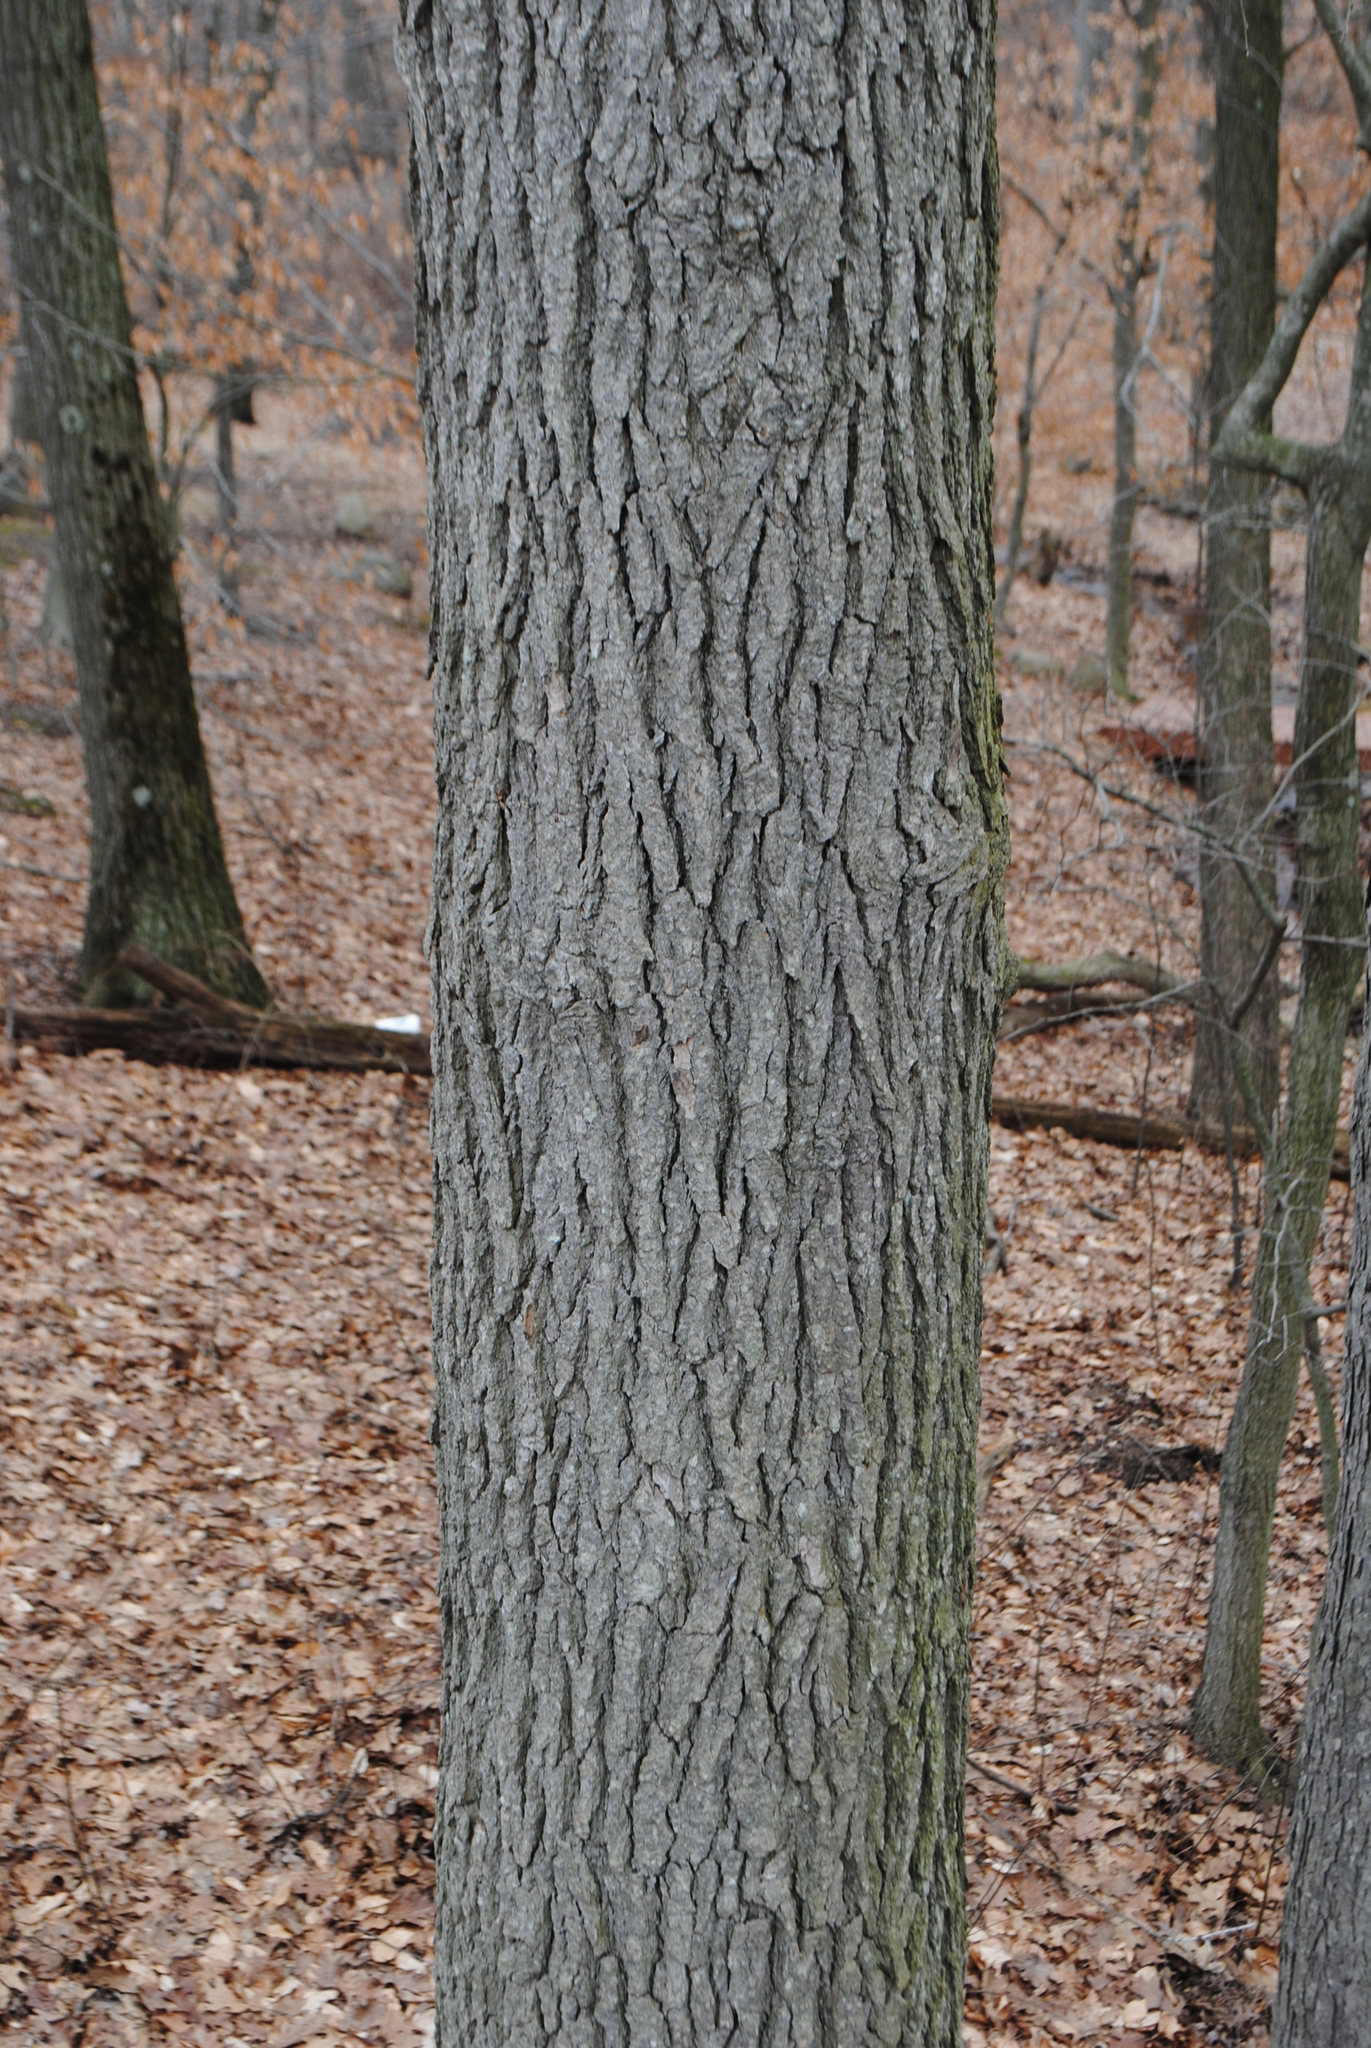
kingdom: Plantae
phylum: Tracheophyta
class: Magnoliopsida
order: Cornales
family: Nyssaceae
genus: Nyssa
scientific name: Nyssa sylvatica
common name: Black tupelo
